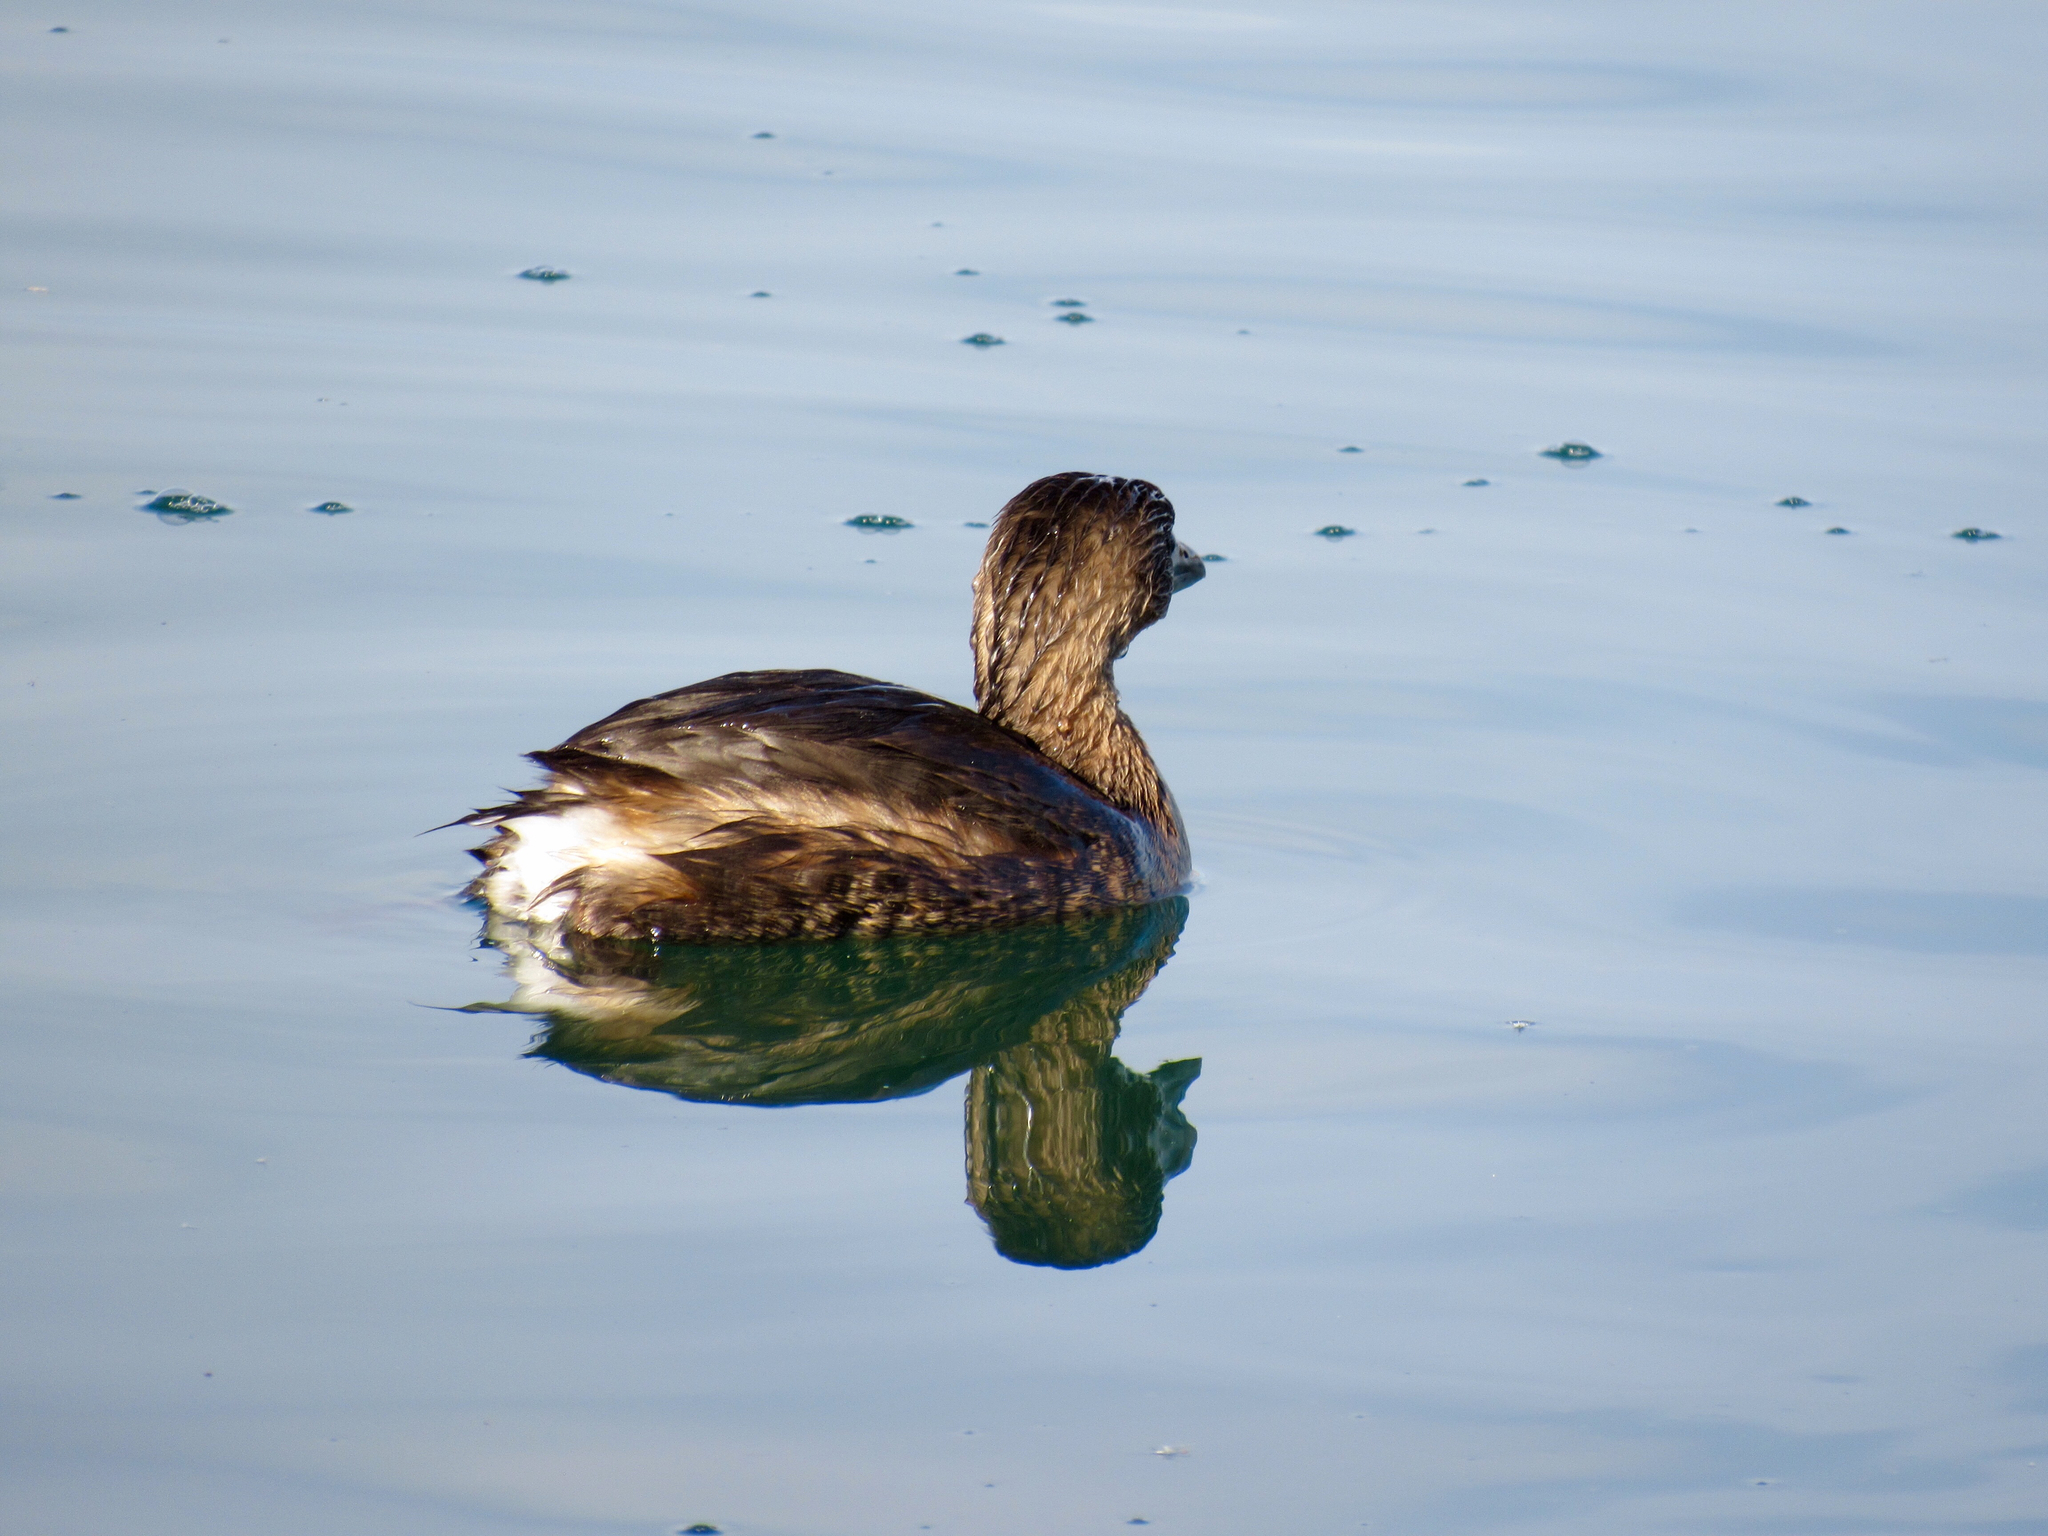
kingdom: Animalia
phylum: Chordata
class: Aves
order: Podicipediformes
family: Podicipedidae
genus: Podilymbus
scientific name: Podilymbus podiceps
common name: Pied-billed grebe
